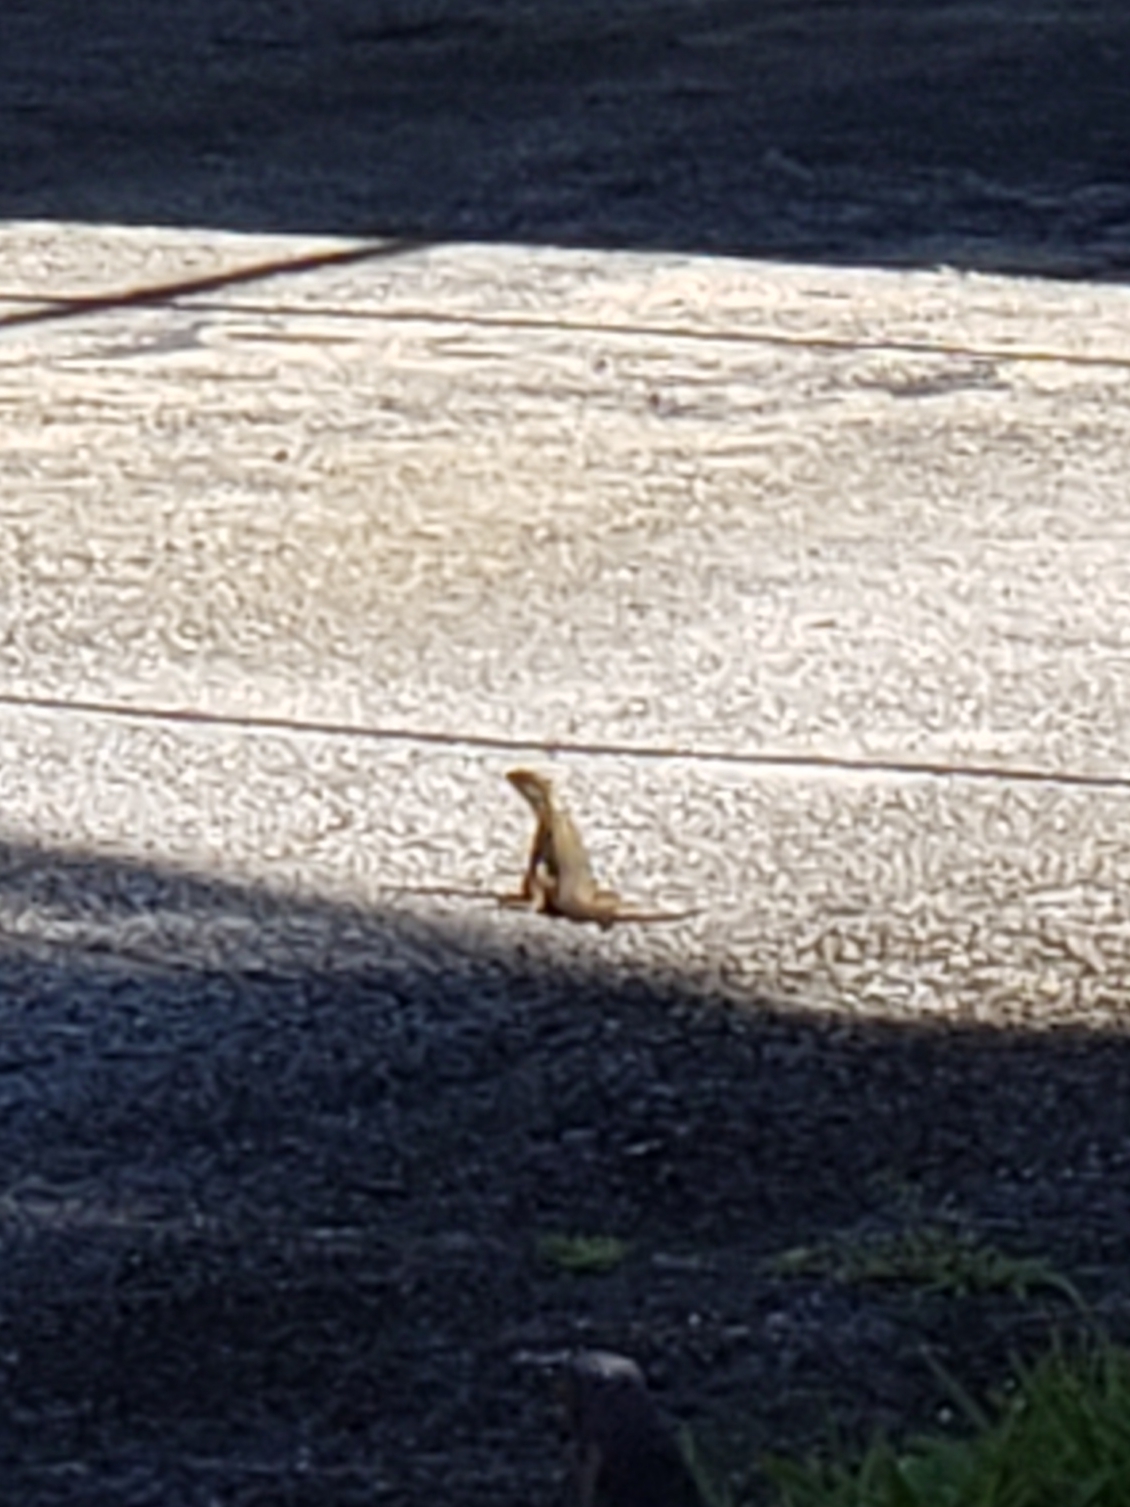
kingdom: Animalia
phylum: Chordata
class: Squamata
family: Leiocephalidae
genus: Leiocephalus
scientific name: Leiocephalus carinatus
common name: Northern curly-tailed lizard
